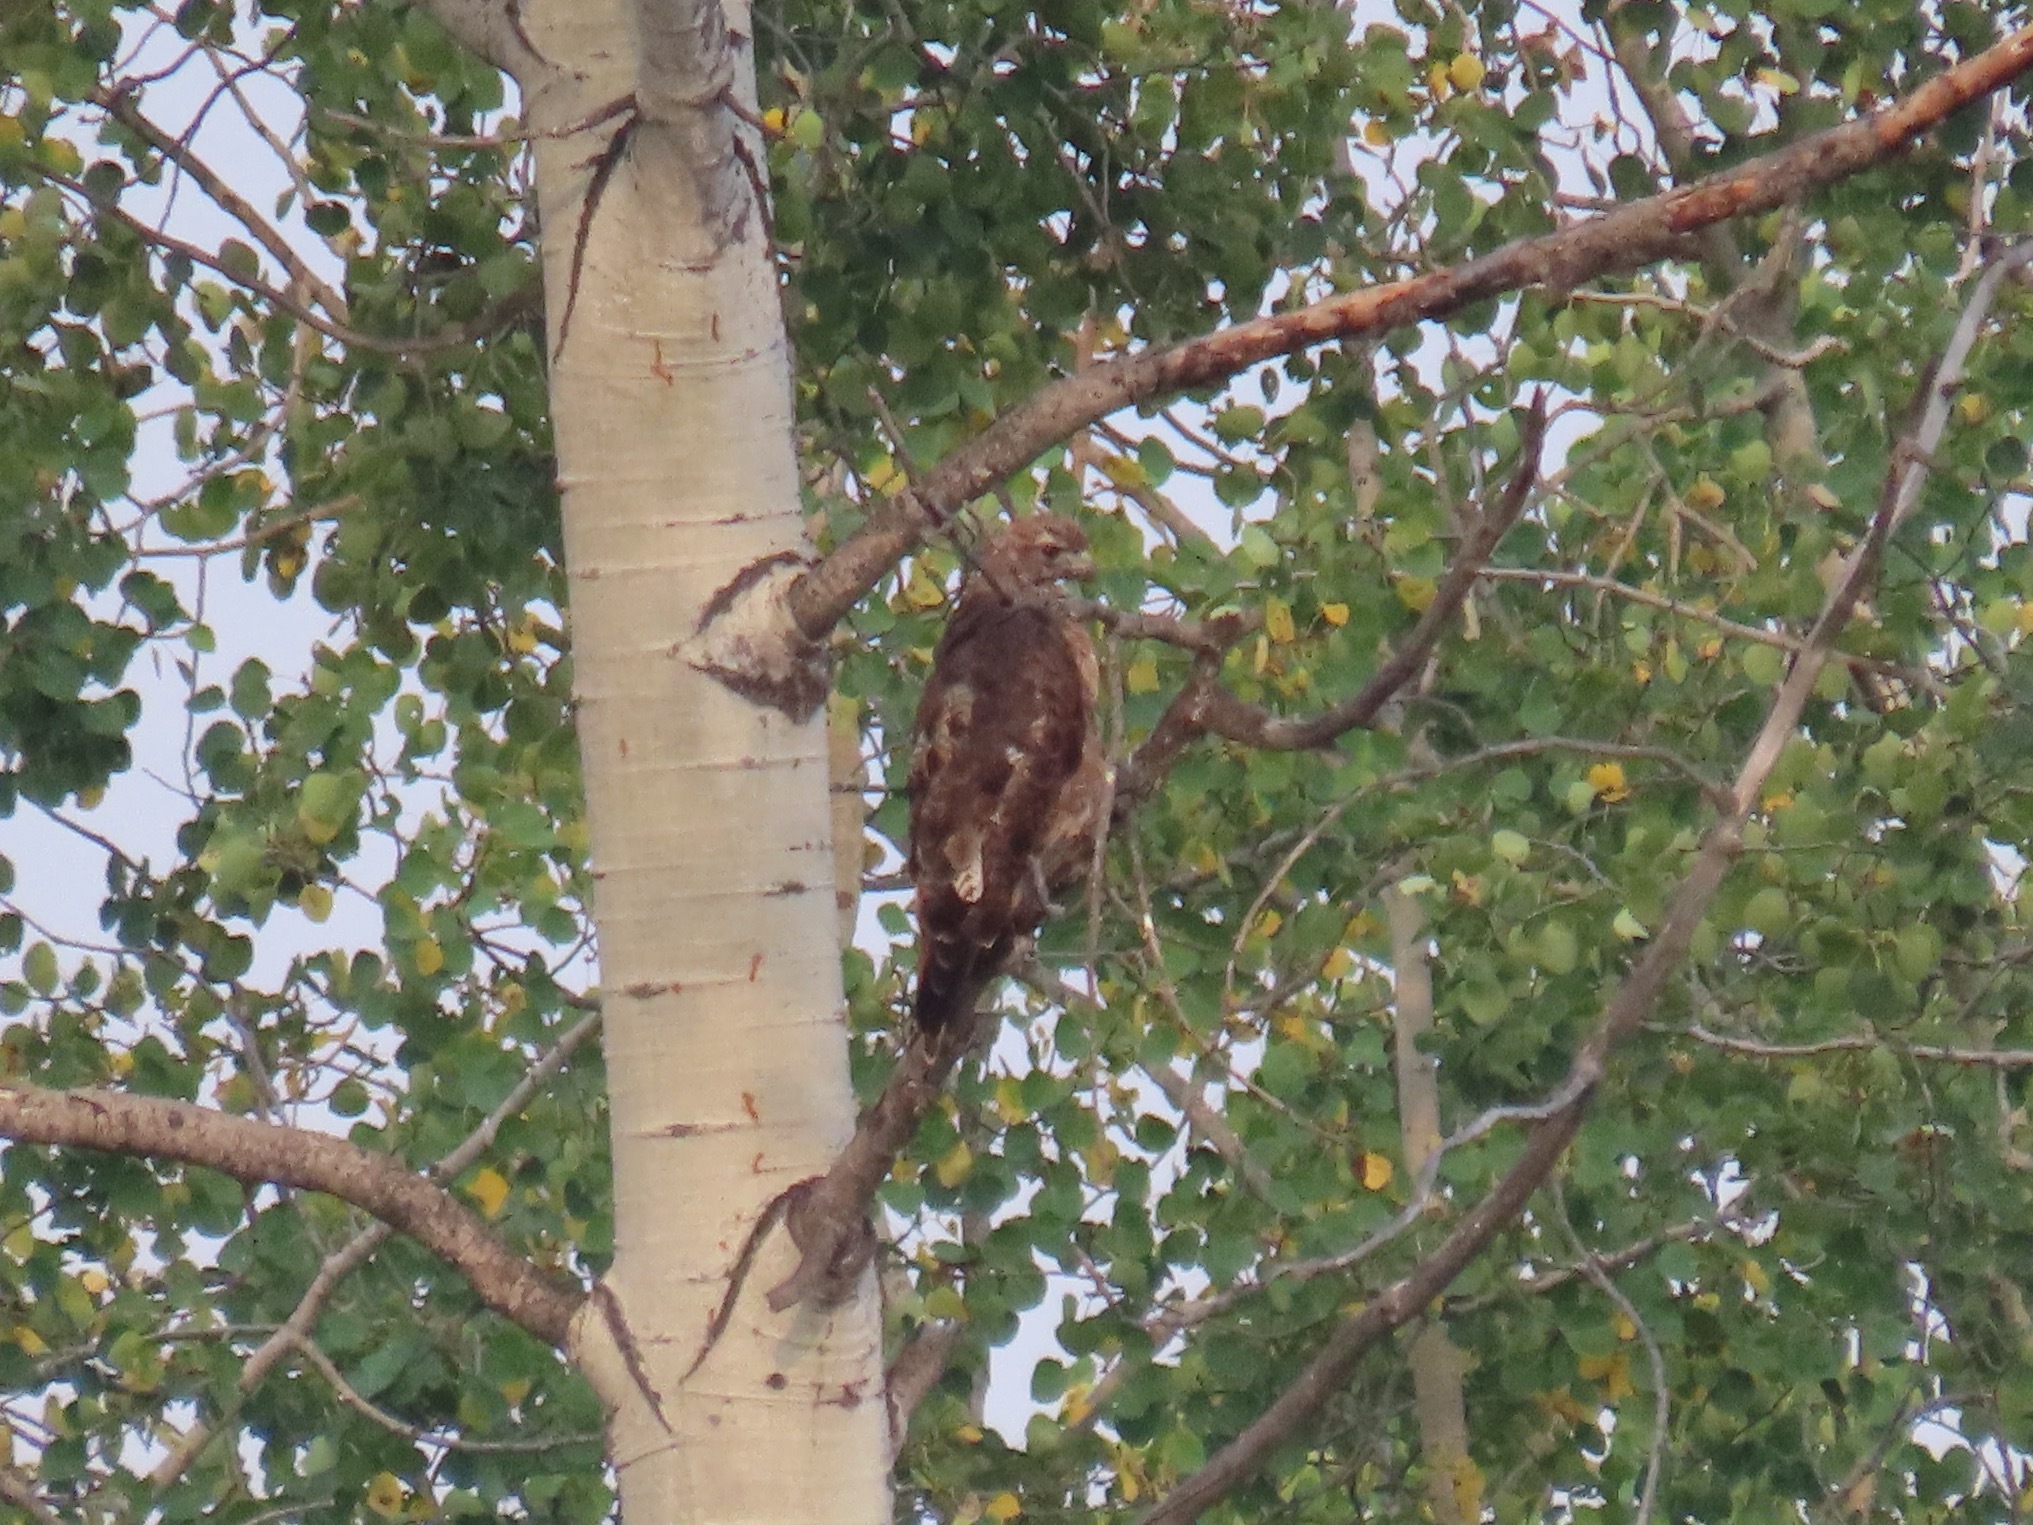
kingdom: Animalia
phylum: Chordata
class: Aves
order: Accipitriformes
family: Accipitridae
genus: Buteo
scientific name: Buteo jamaicensis
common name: Red-tailed hawk
